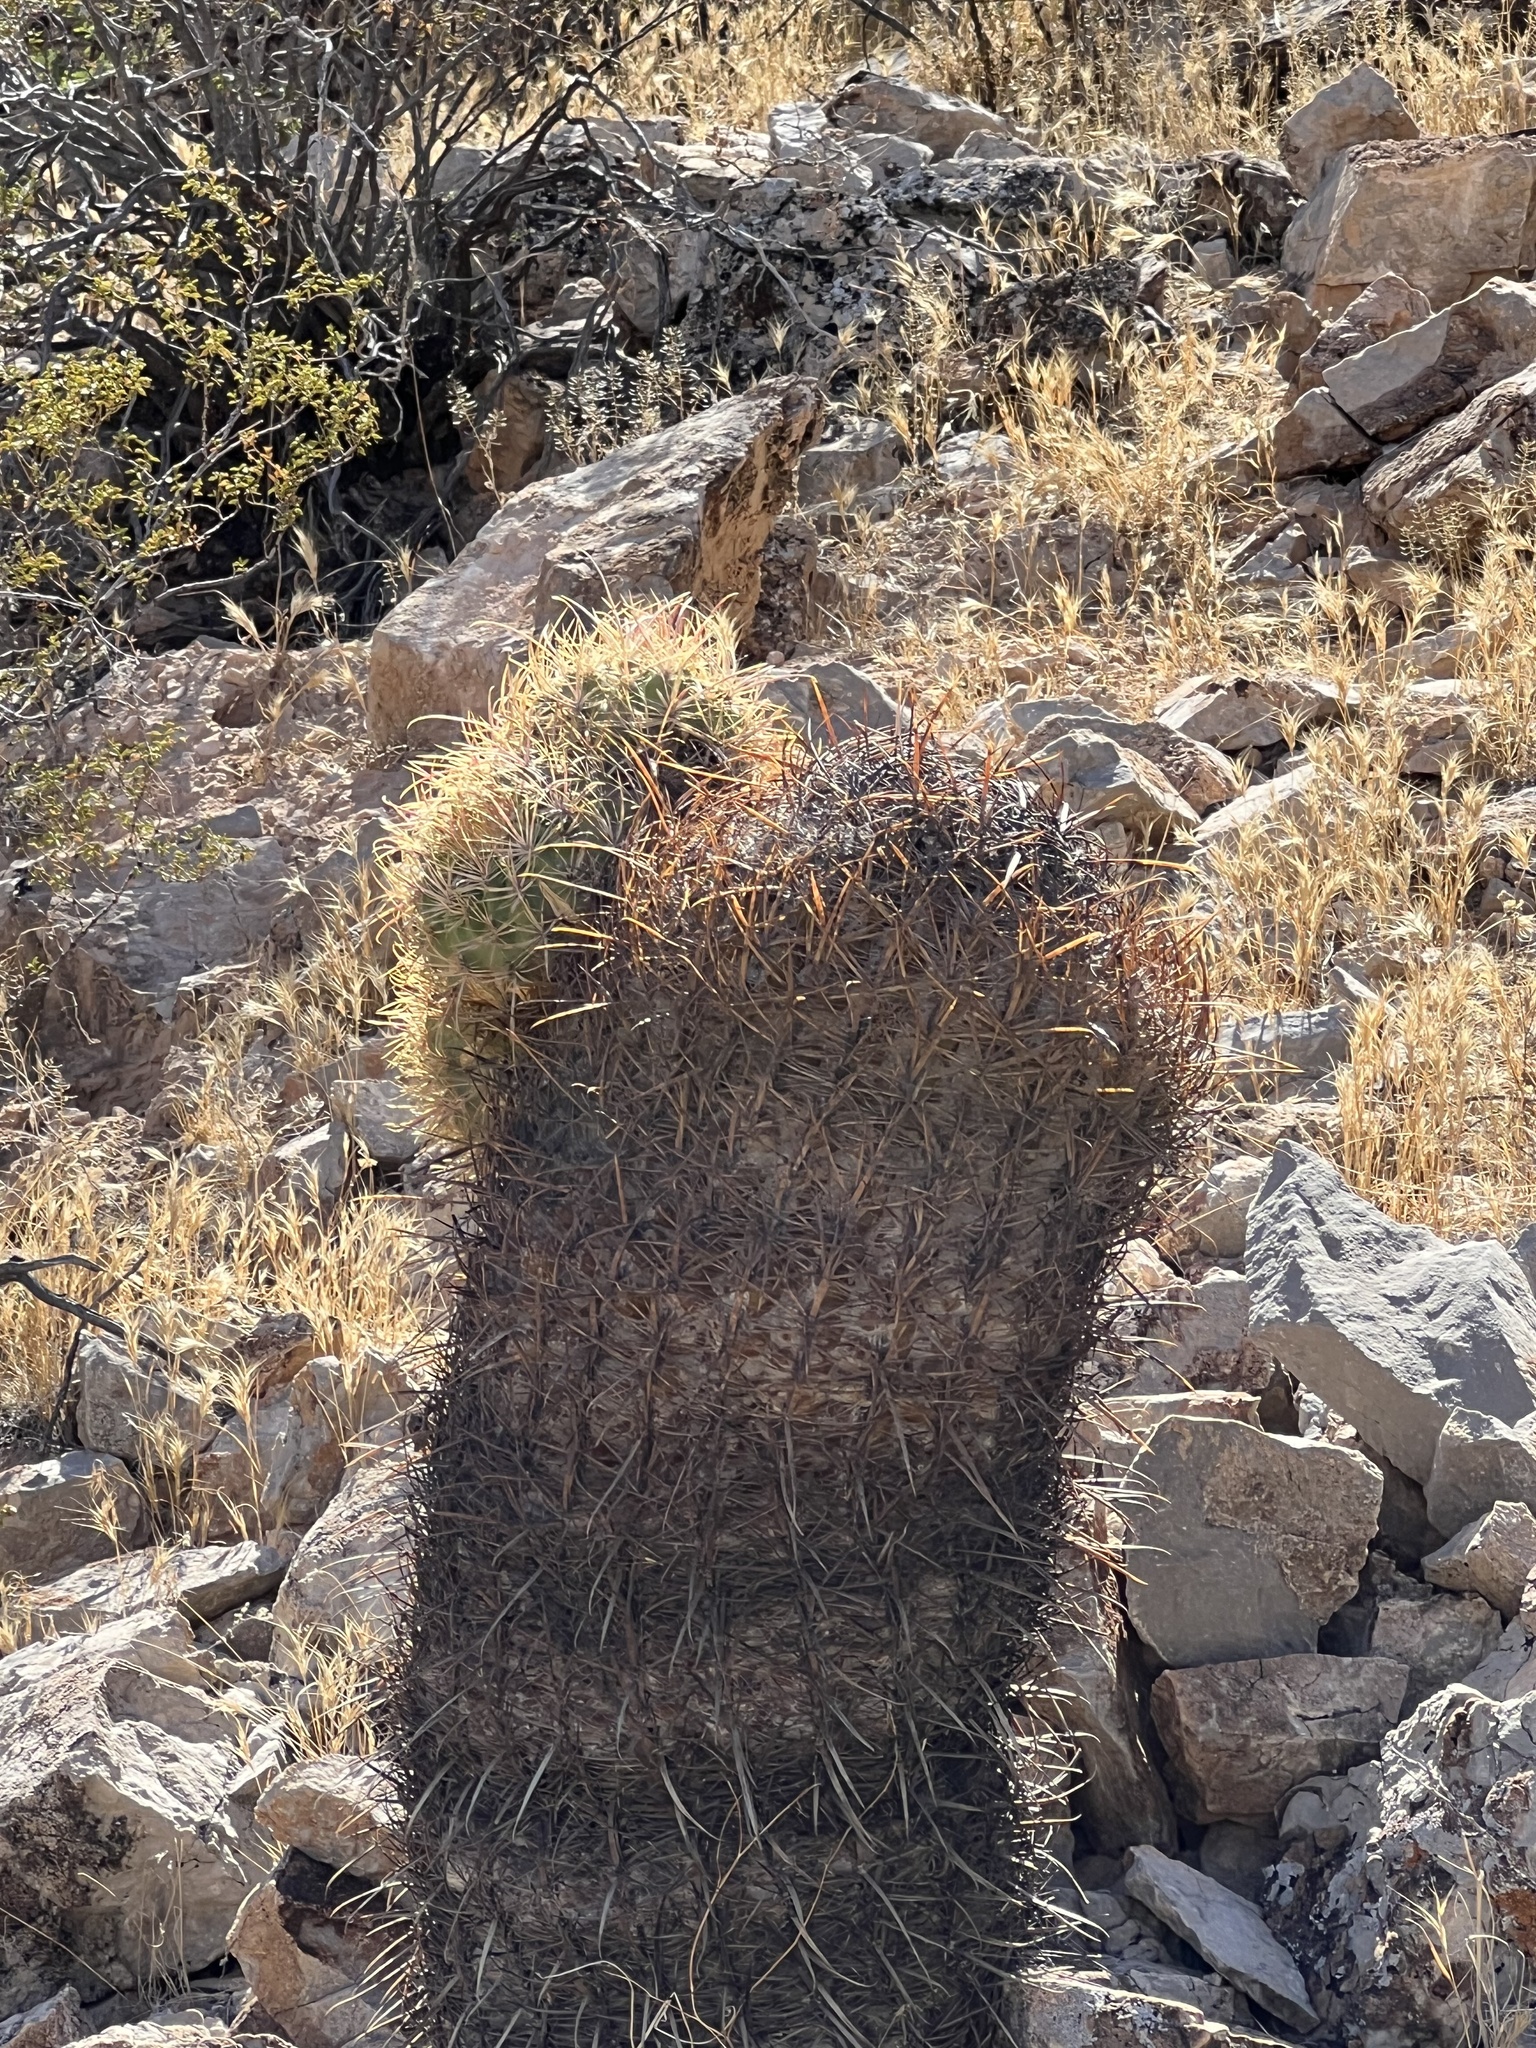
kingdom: Plantae
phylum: Tracheophyta
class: Magnoliopsida
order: Caryophyllales
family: Cactaceae
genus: Ferocactus
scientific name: Ferocactus cylindraceus
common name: California barrel cactus
